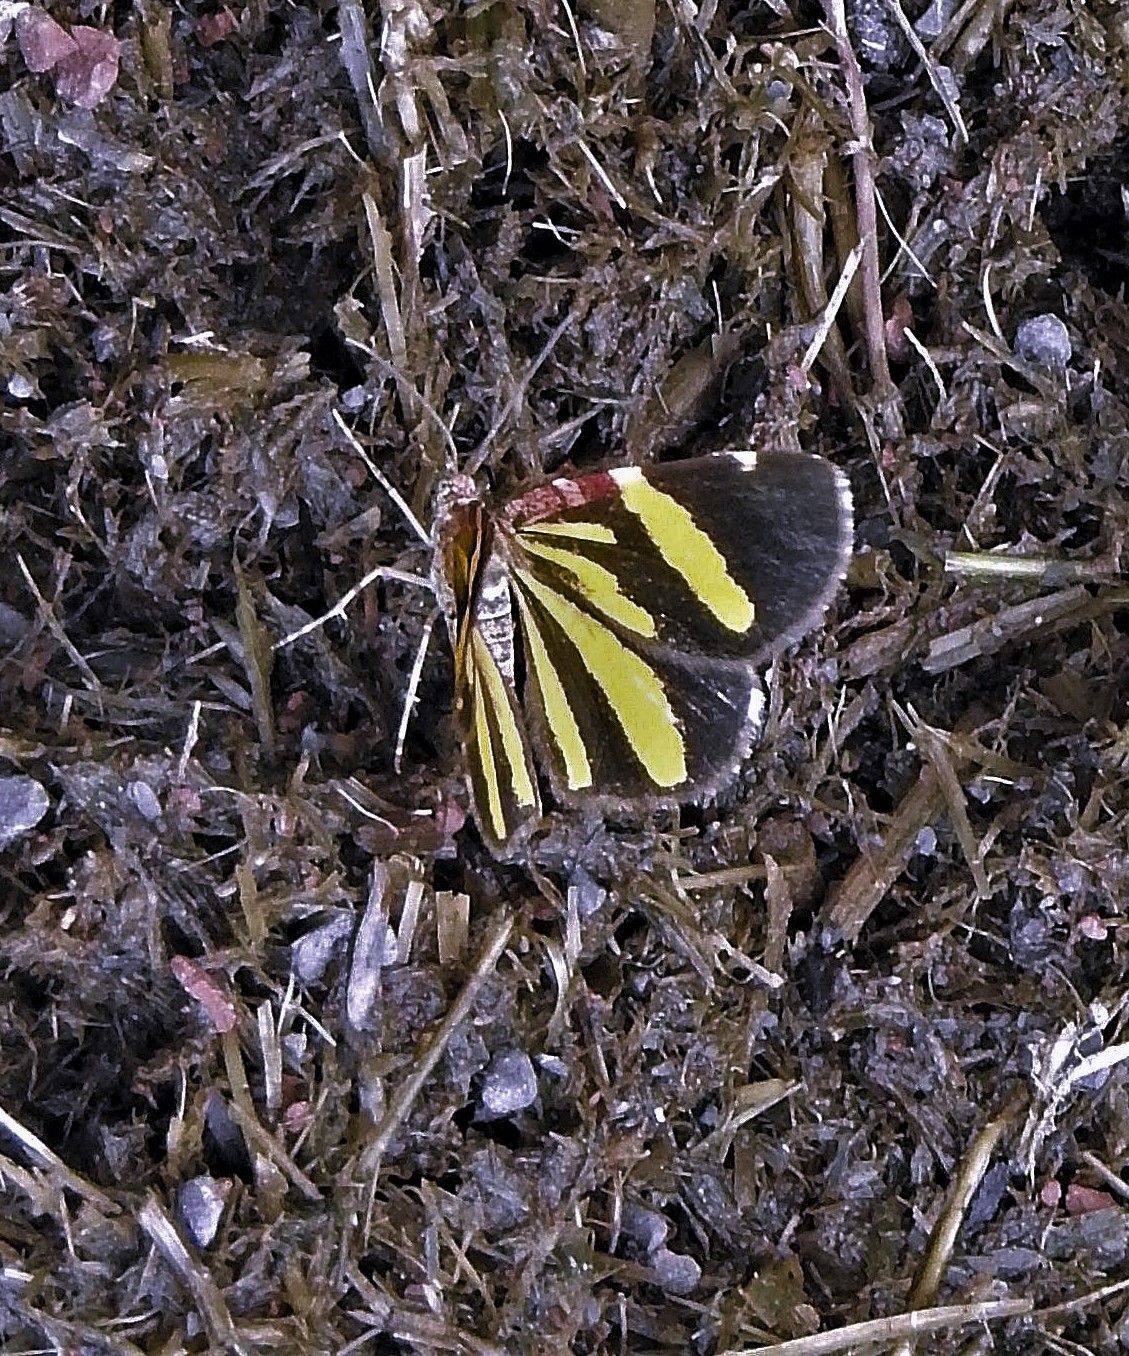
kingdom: Animalia
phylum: Arthropoda
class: Insecta
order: Lepidoptera
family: Geometridae
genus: Heterusia
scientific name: Heterusia quadruplicaria
